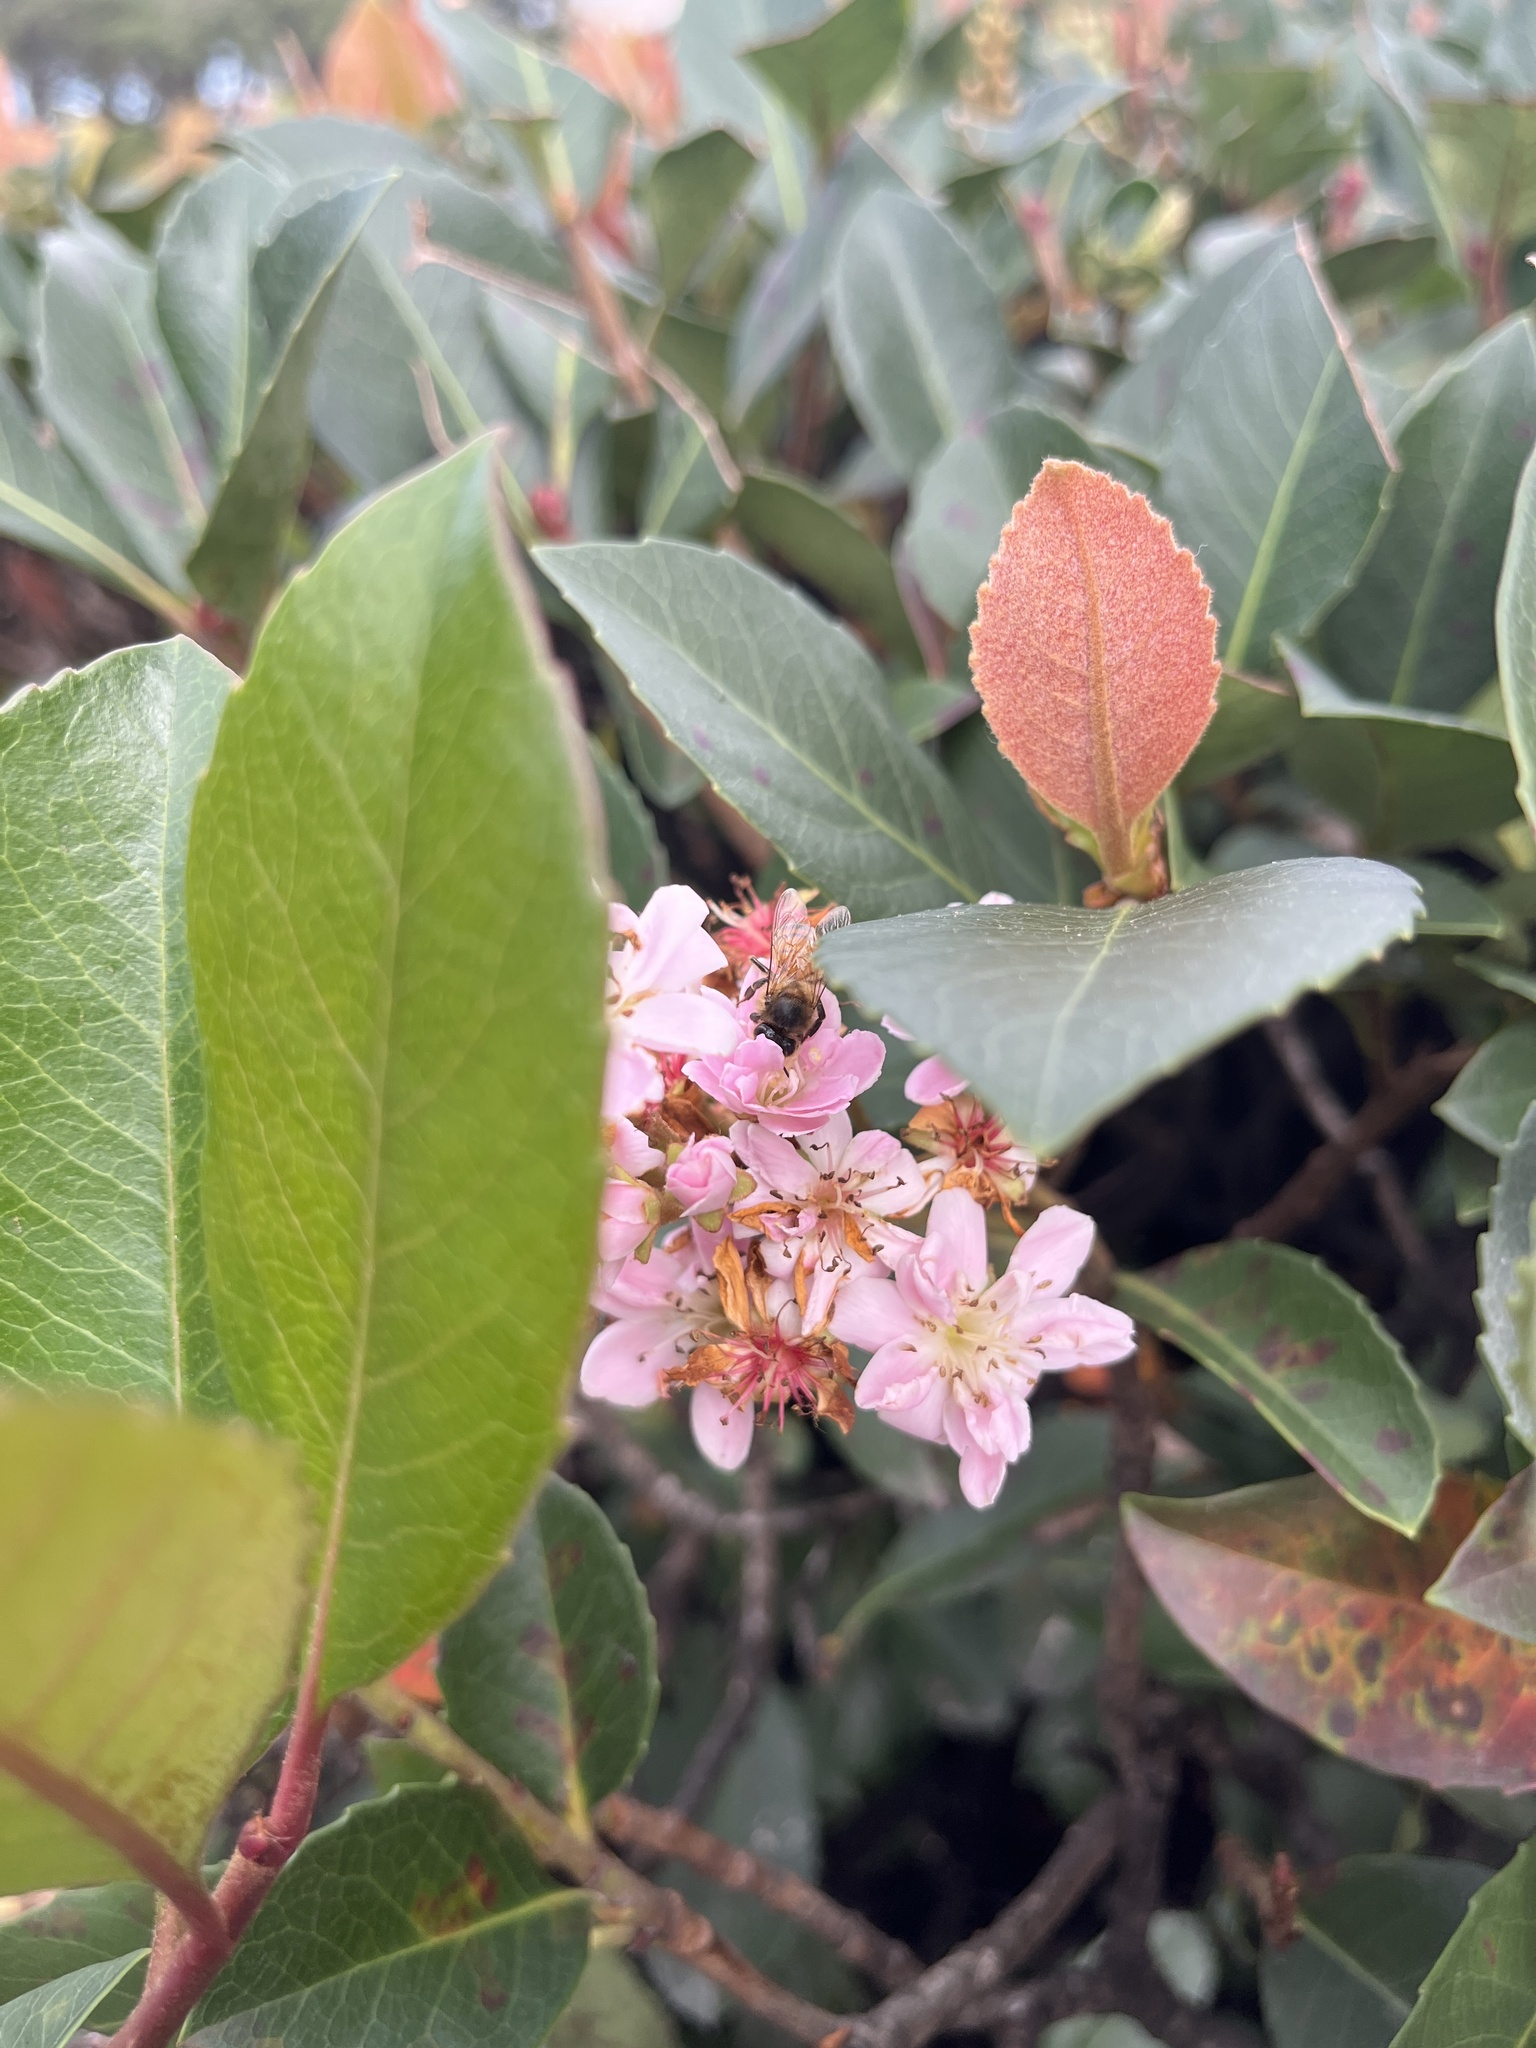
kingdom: Animalia
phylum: Arthropoda
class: Insecta
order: Hymenoptera
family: Apidae
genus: Apis
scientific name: Apis mellifera
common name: Honey bee
